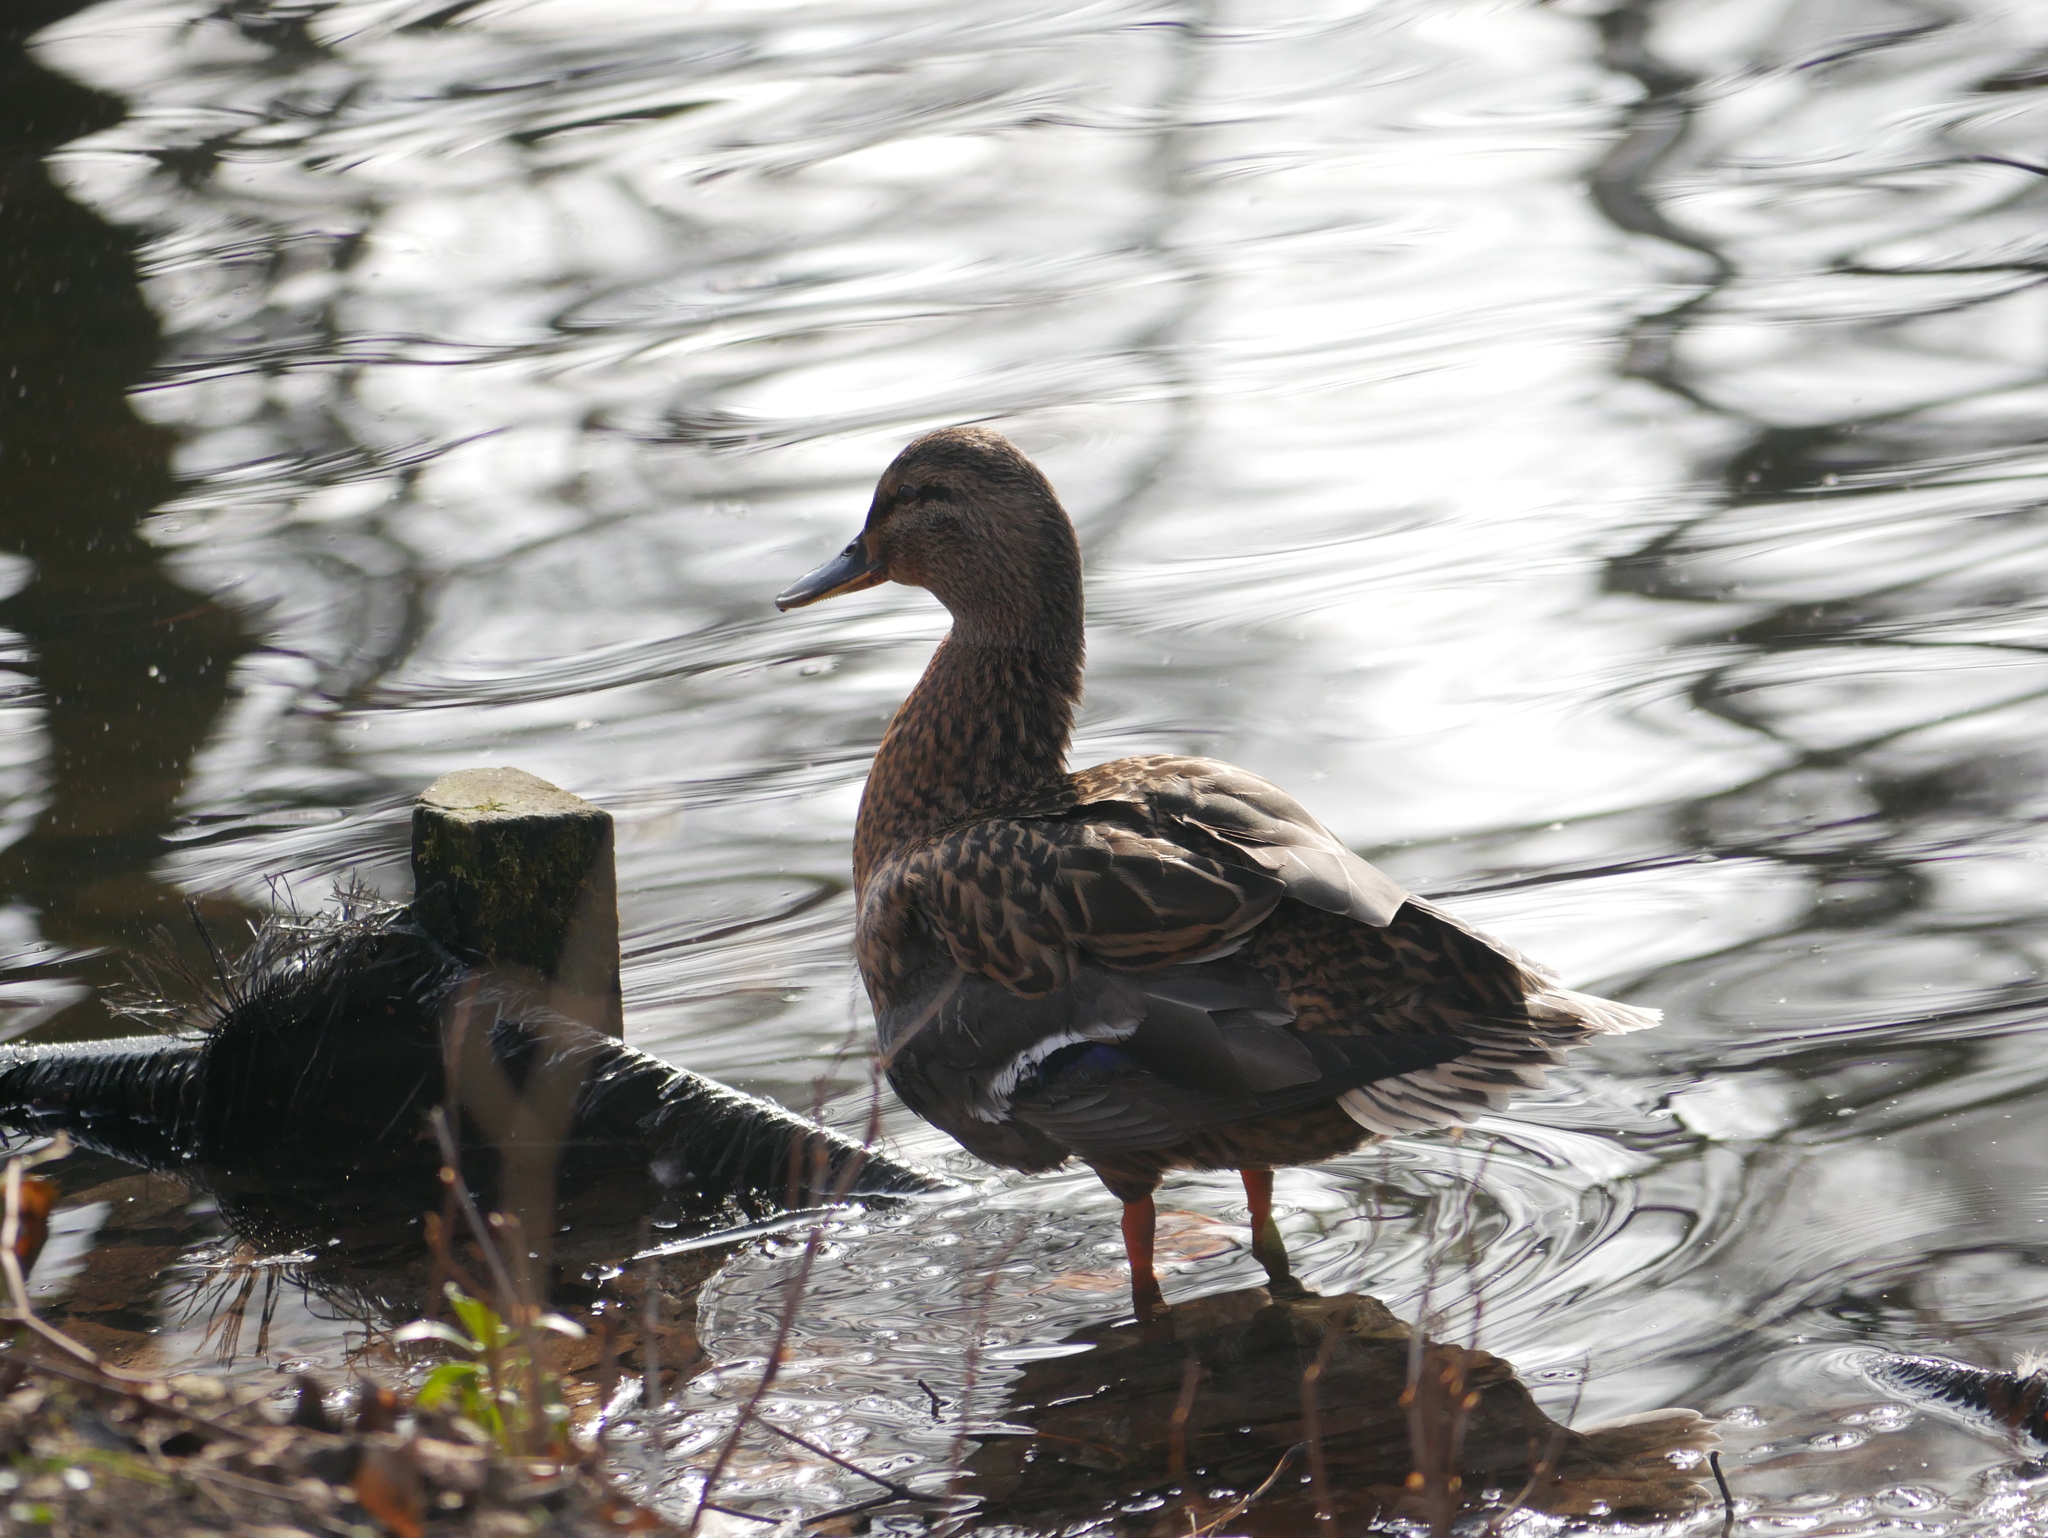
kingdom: Animalia
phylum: Chordata
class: Aves
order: Anseriformes
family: Anatidae
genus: Anas
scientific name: Anas platyrhynchos
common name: Mallard
